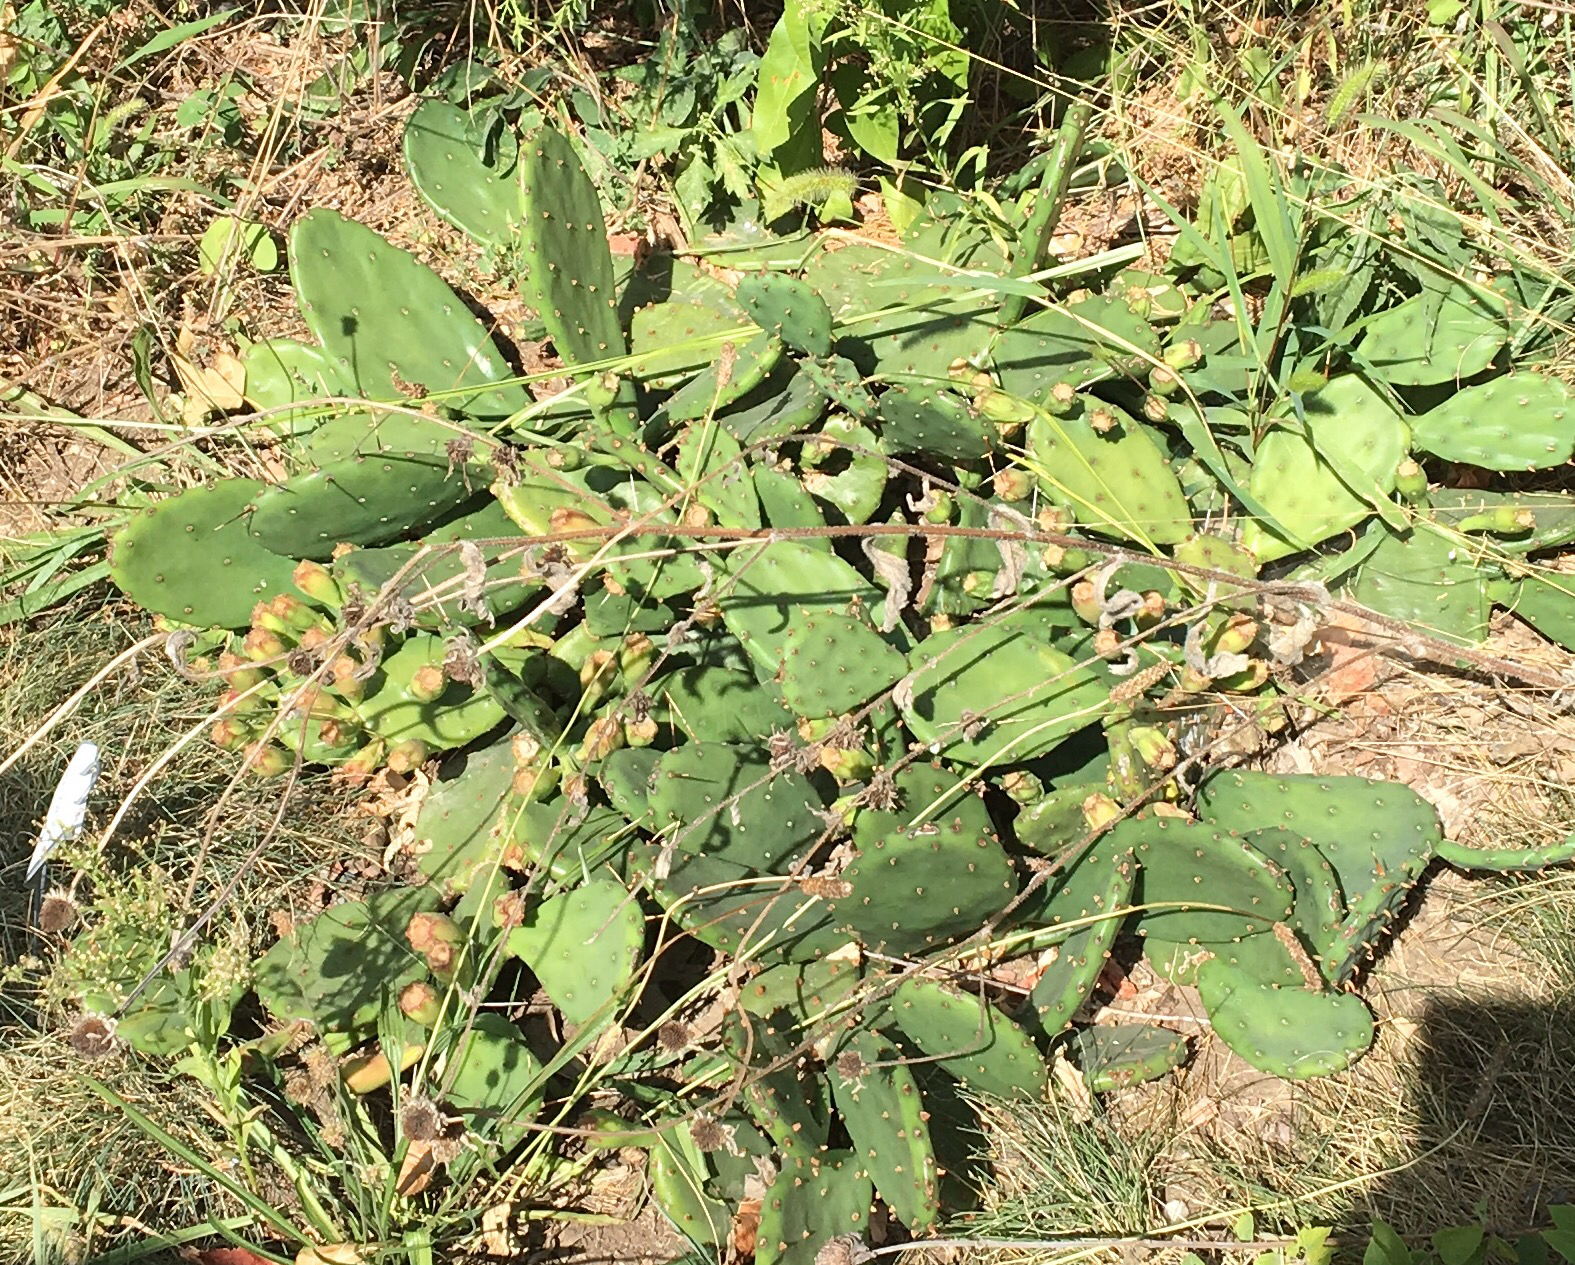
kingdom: Plantae
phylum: Tracheophyta
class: Magnoliopsida
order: Caryophyllales
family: Cactaceae
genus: Opuntia
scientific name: Opuntia humifusa
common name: Eastern prickly-pear
